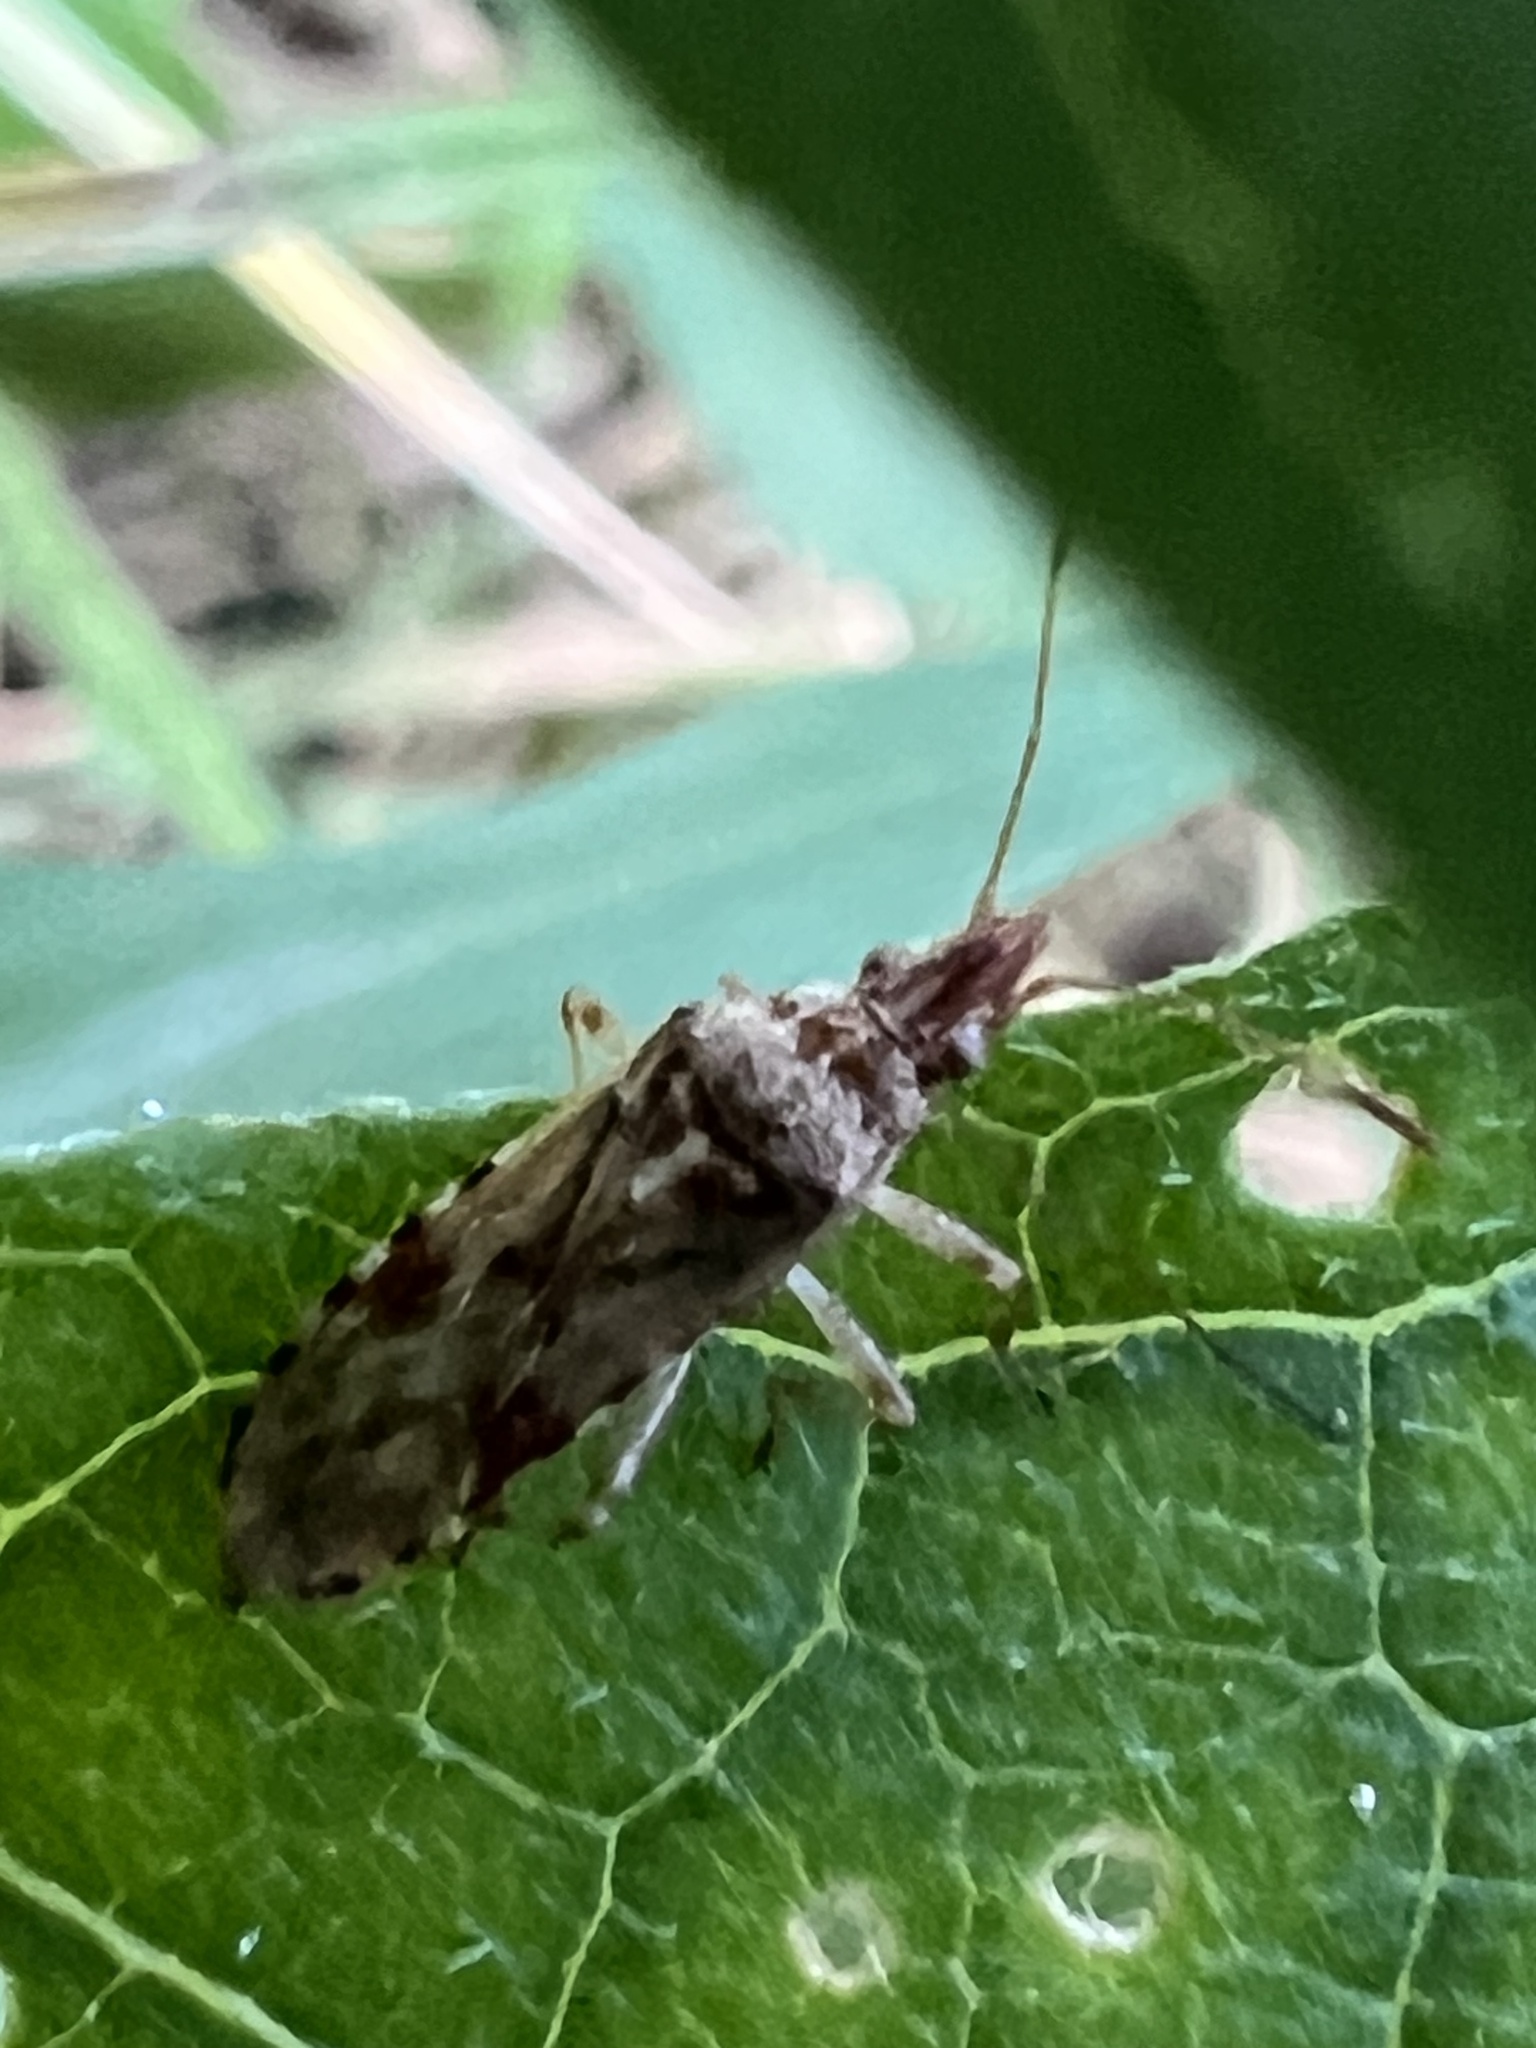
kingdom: Animalia
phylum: Arthropoda
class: Insecta
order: Hemiptera
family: Lygaeidae
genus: Belonochilus
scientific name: Belonochilus numenius
